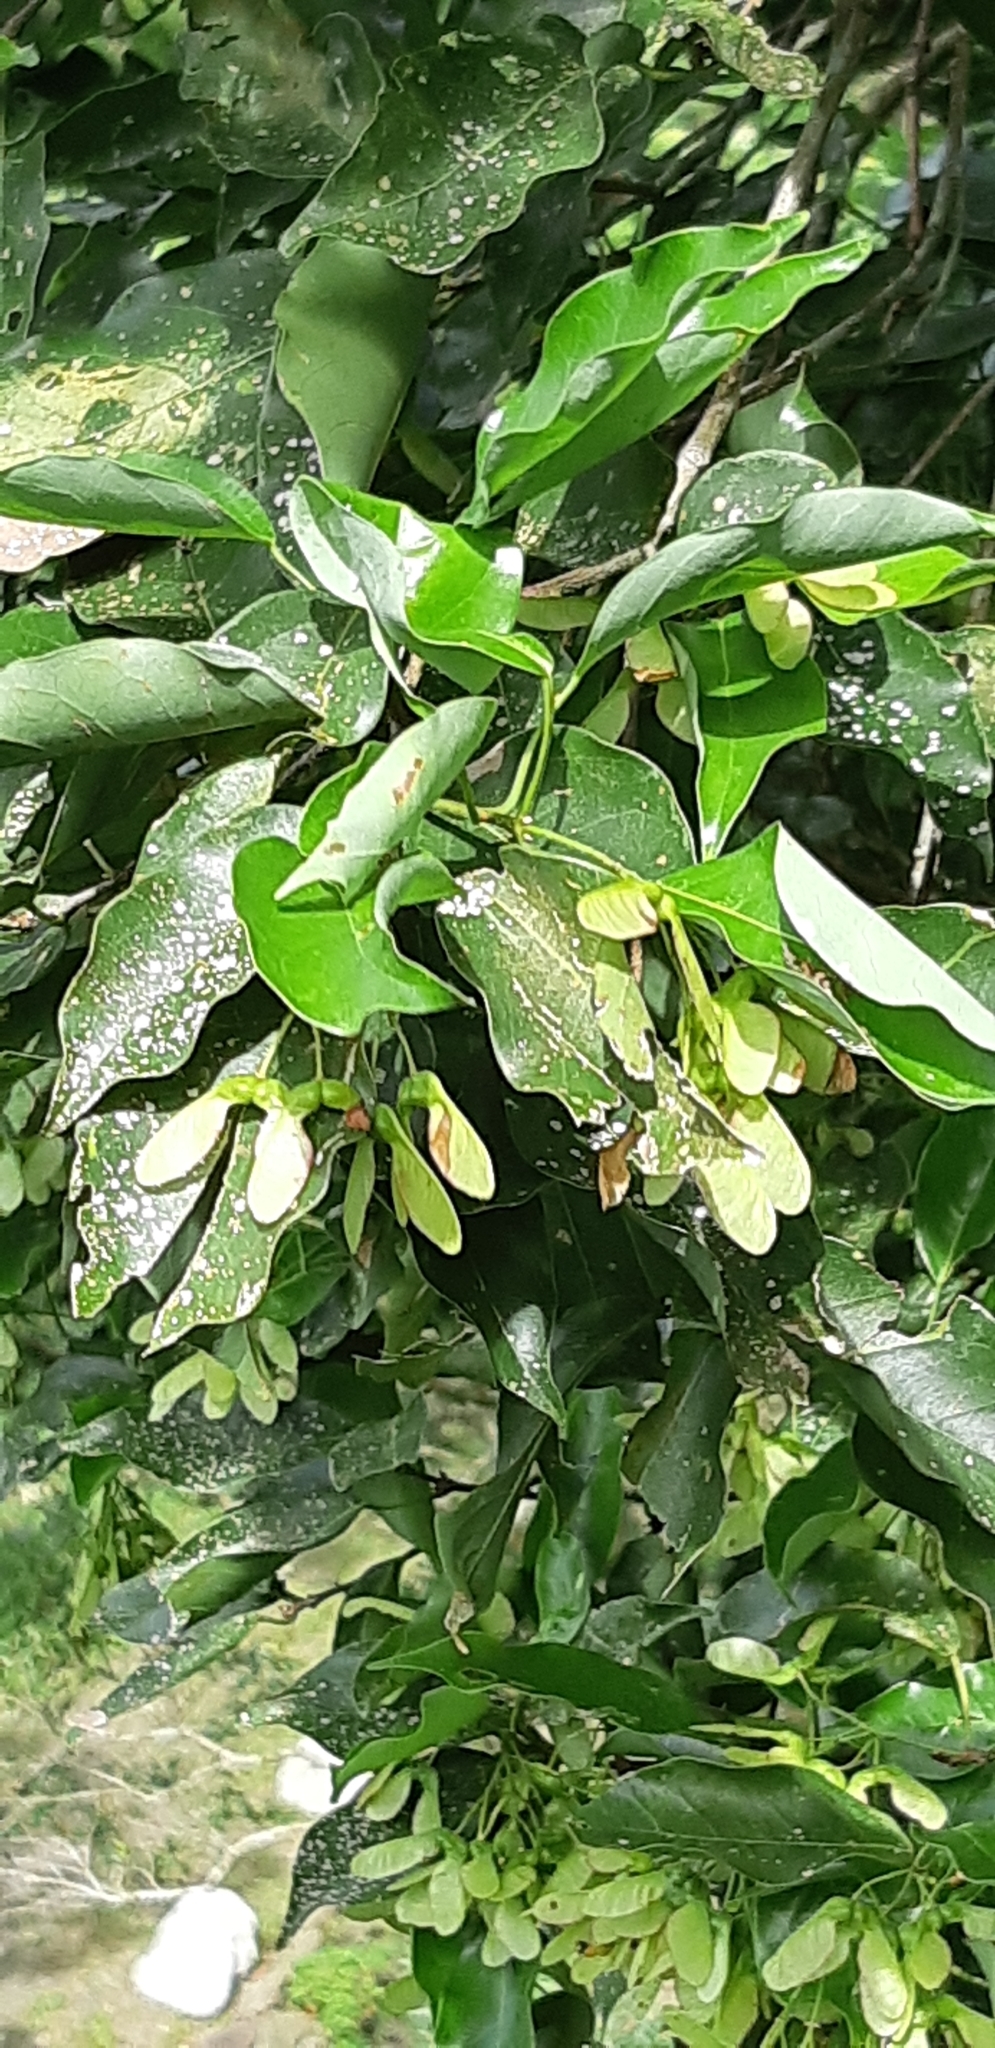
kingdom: Plantae
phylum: Tracheophyta
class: Magnoliopsida
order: Sapindales
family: Sapindaceae
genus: Acer
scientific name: Acer oblongum
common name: Himalayan maple
